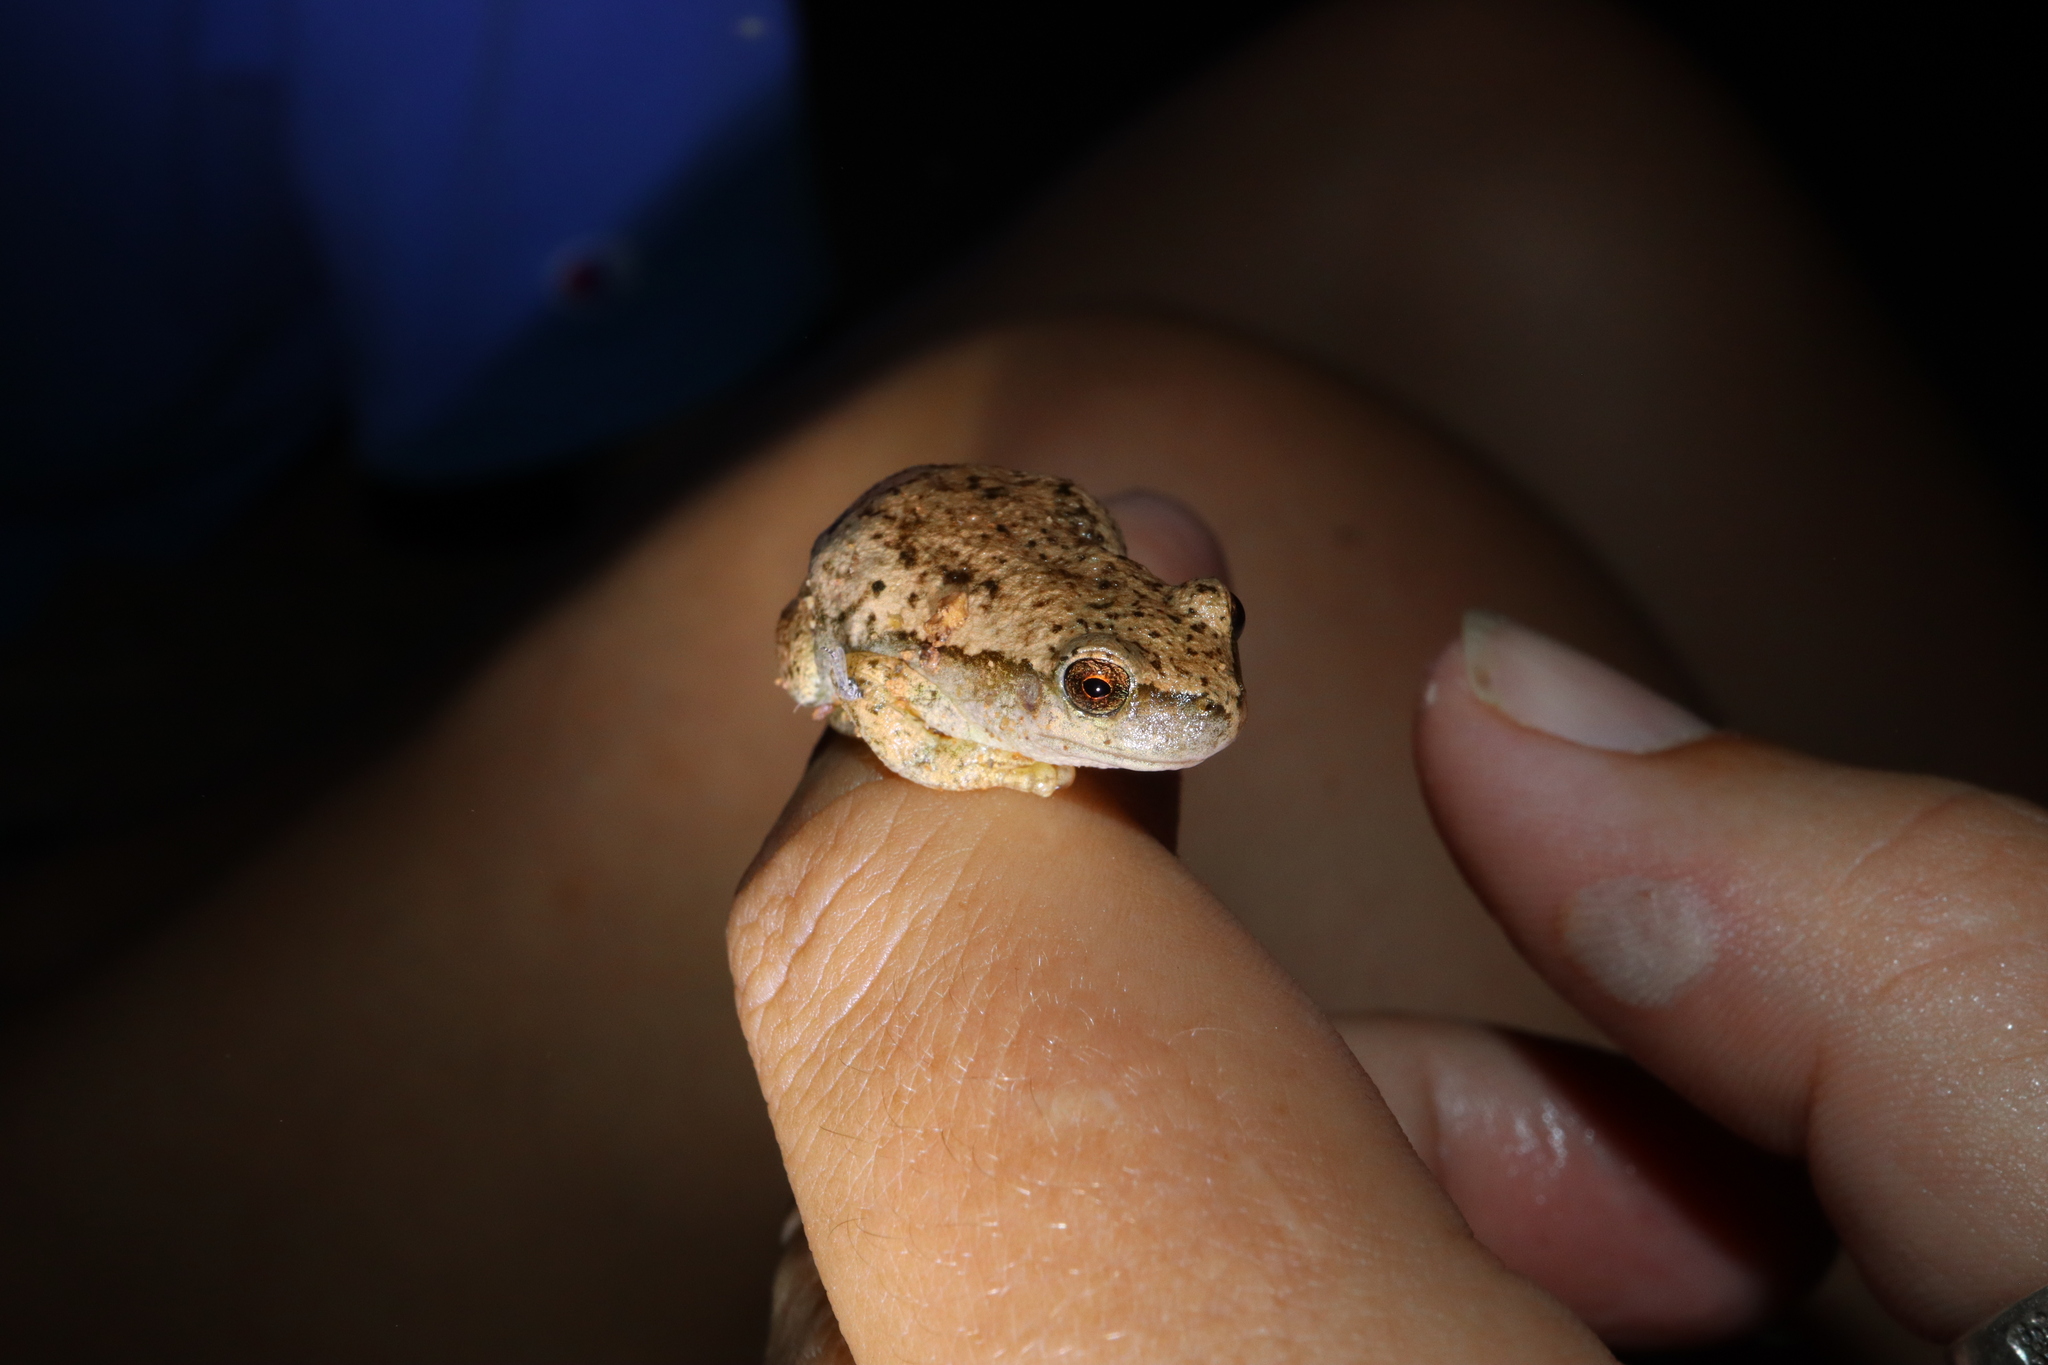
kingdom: Animalia
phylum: Chordata
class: Amphibia
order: Anura
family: Pelodryadidae
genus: Litoria
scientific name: Litoria rubella
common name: Desert tree frog
